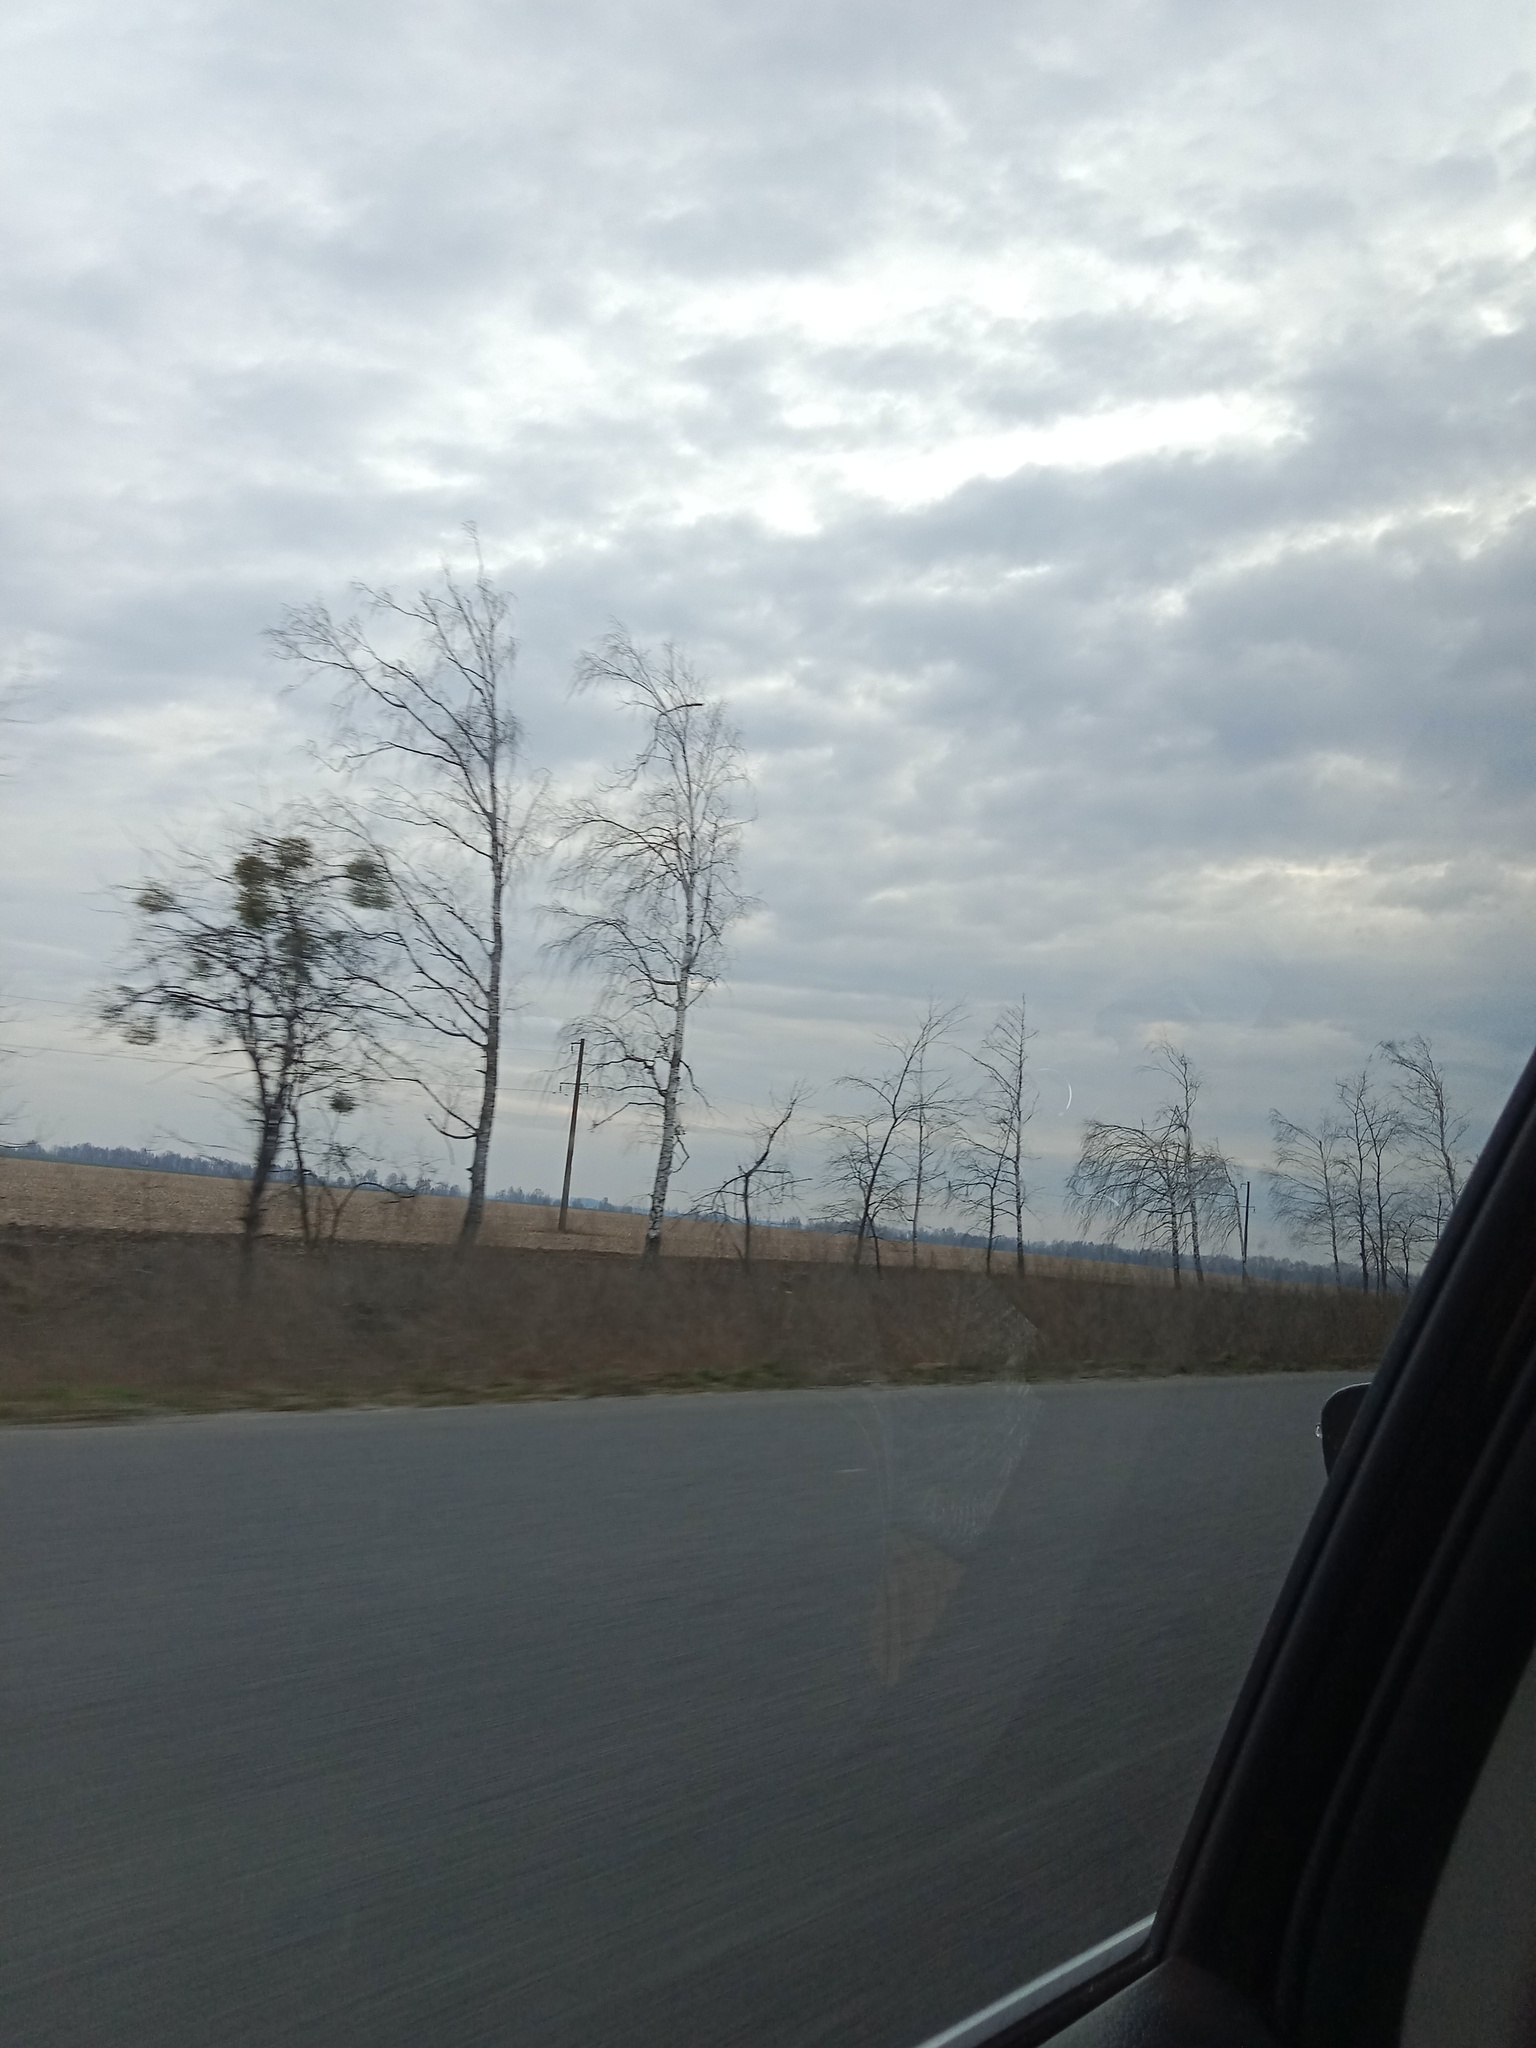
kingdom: Plantae
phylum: Tracheophyta
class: Magnoliopsida
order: Santalales
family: Viscaceae
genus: Viscum
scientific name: Viscum album
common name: Mistletoe
